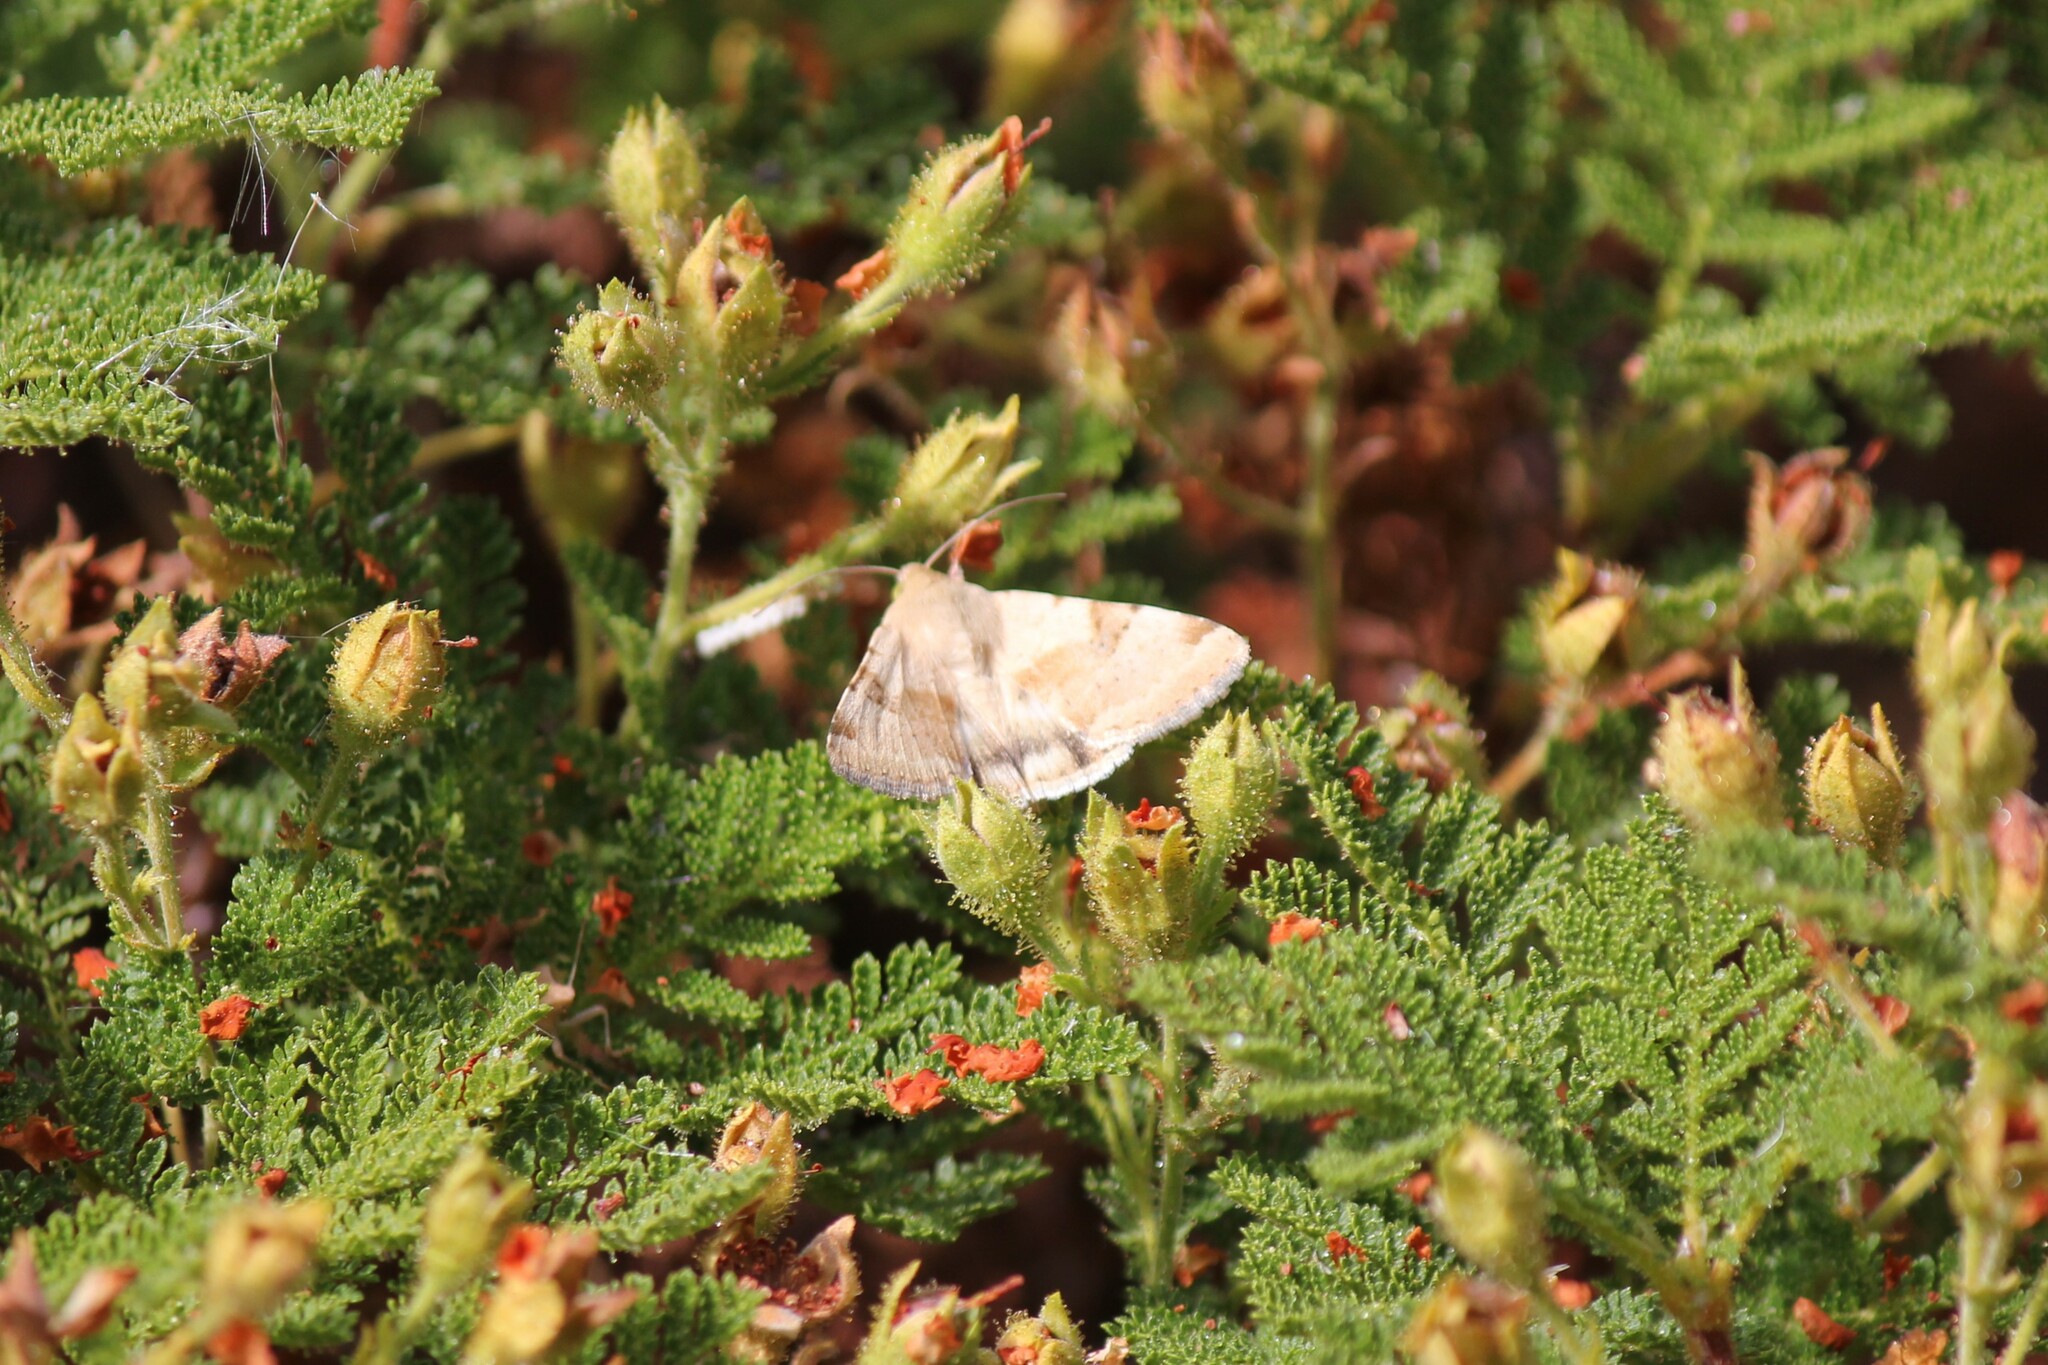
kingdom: Animalia
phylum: Arthropoda
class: Insecta
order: Lepidoptera
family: Noctuidae
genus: Heliothis
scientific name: Heliothis phloxiphaga
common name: Darker spotted straw moth
